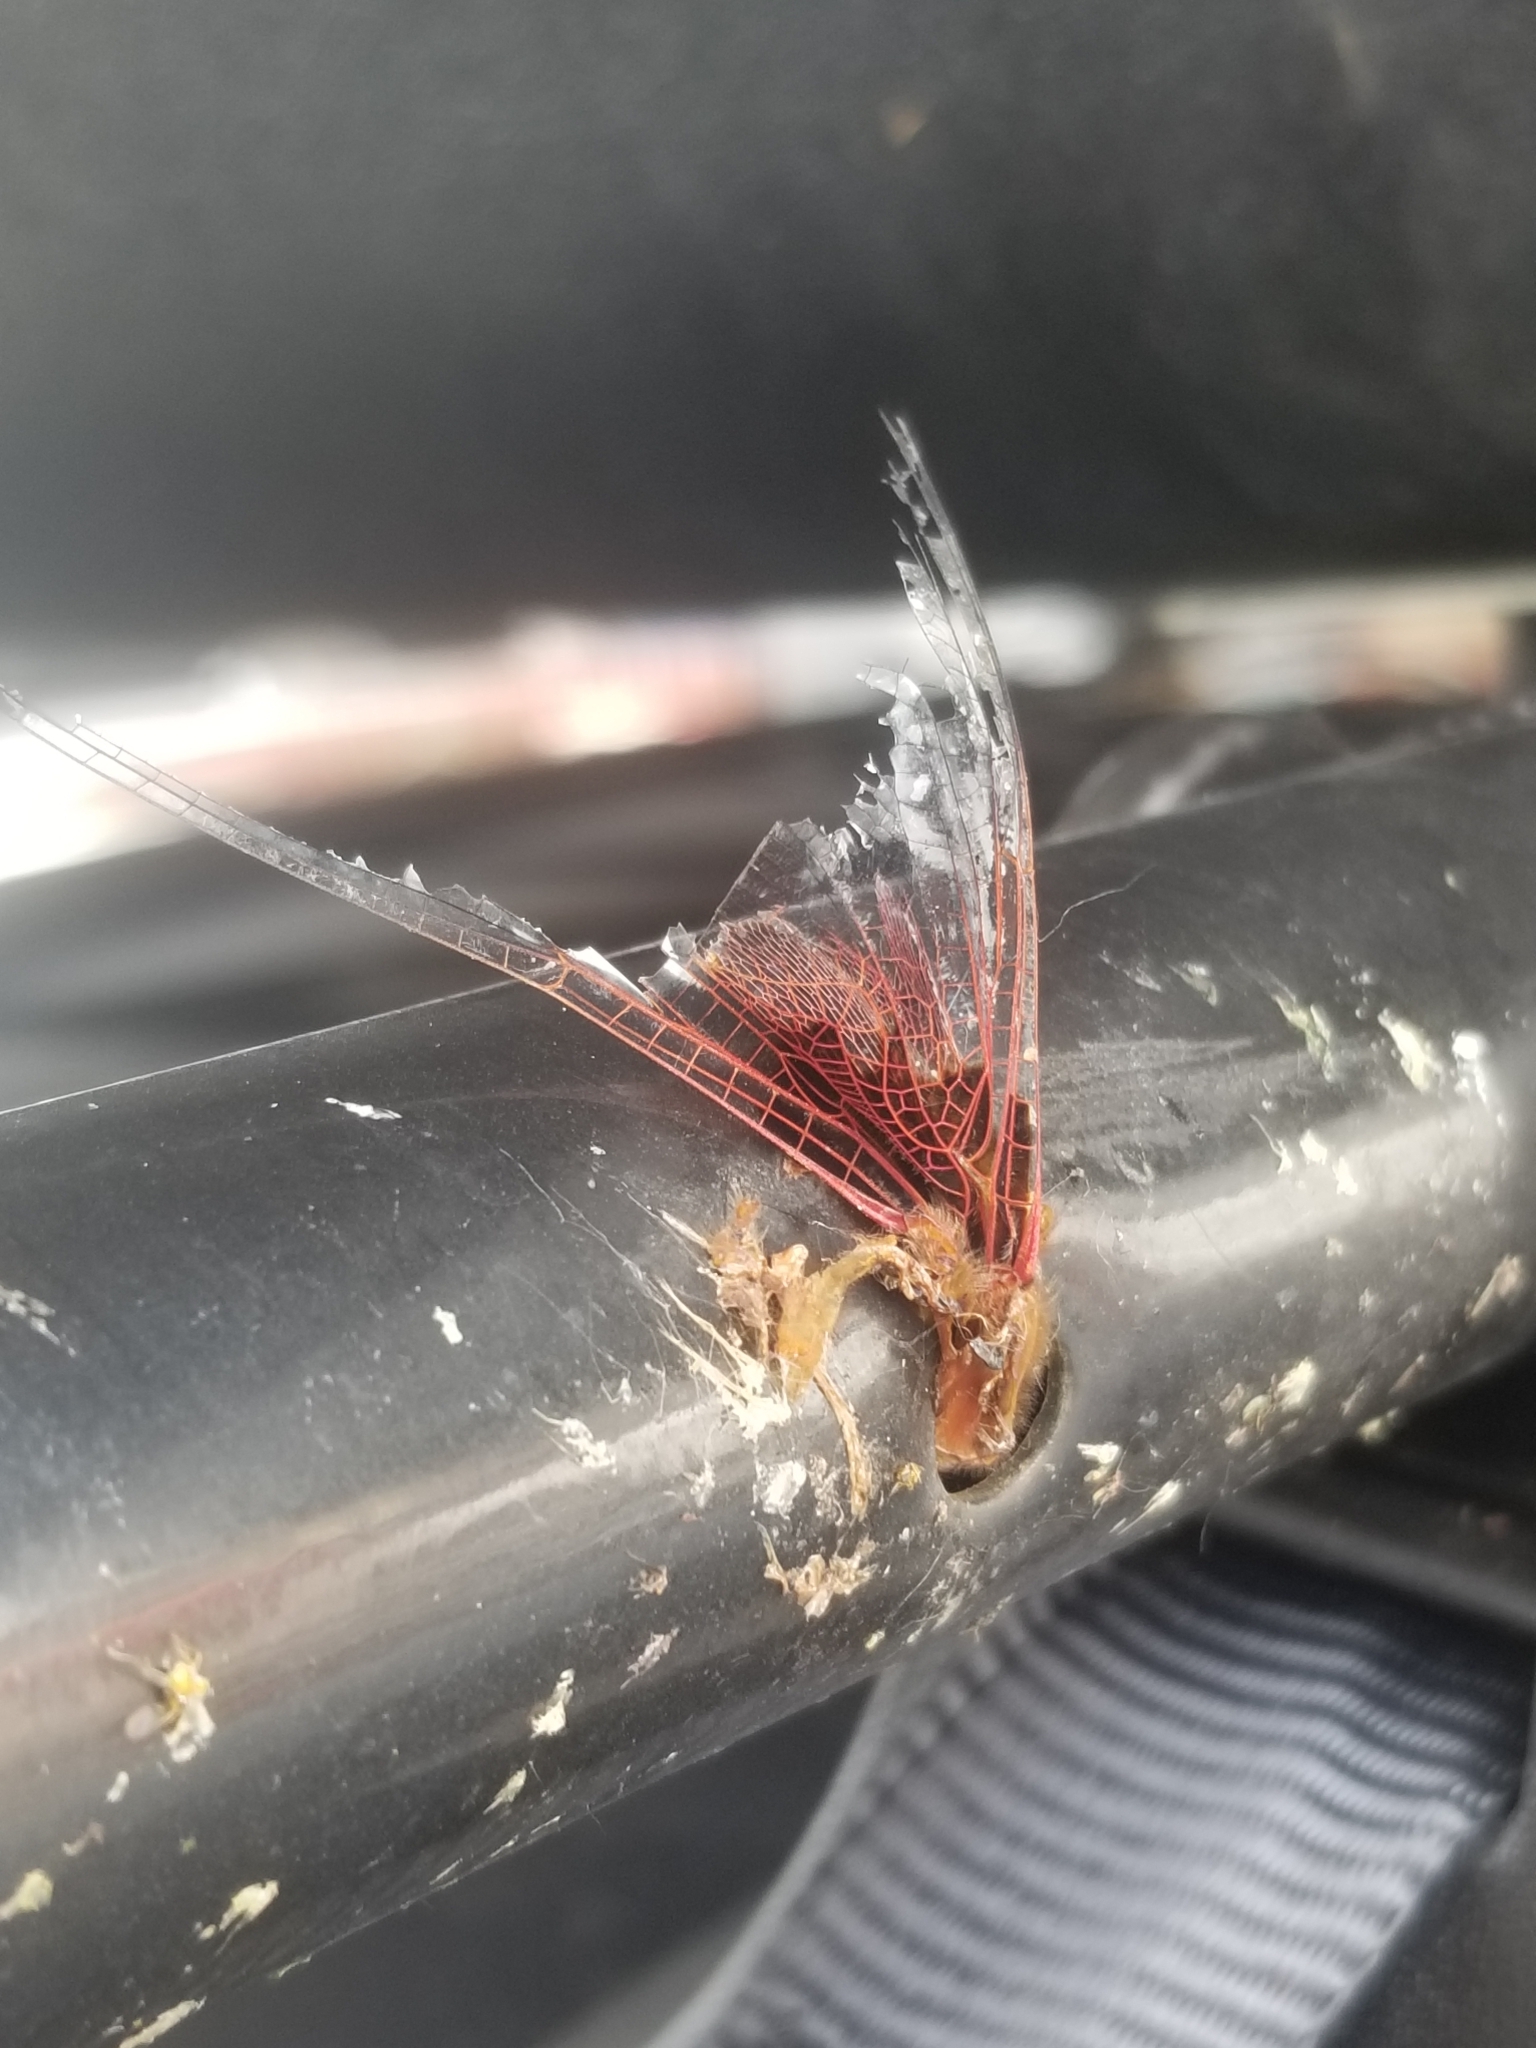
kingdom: Animalia
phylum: Arthropoda
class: Insecta
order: Odonata
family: Libellulidae
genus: Tramea
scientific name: Tramea onusta
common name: Red saddlebags
